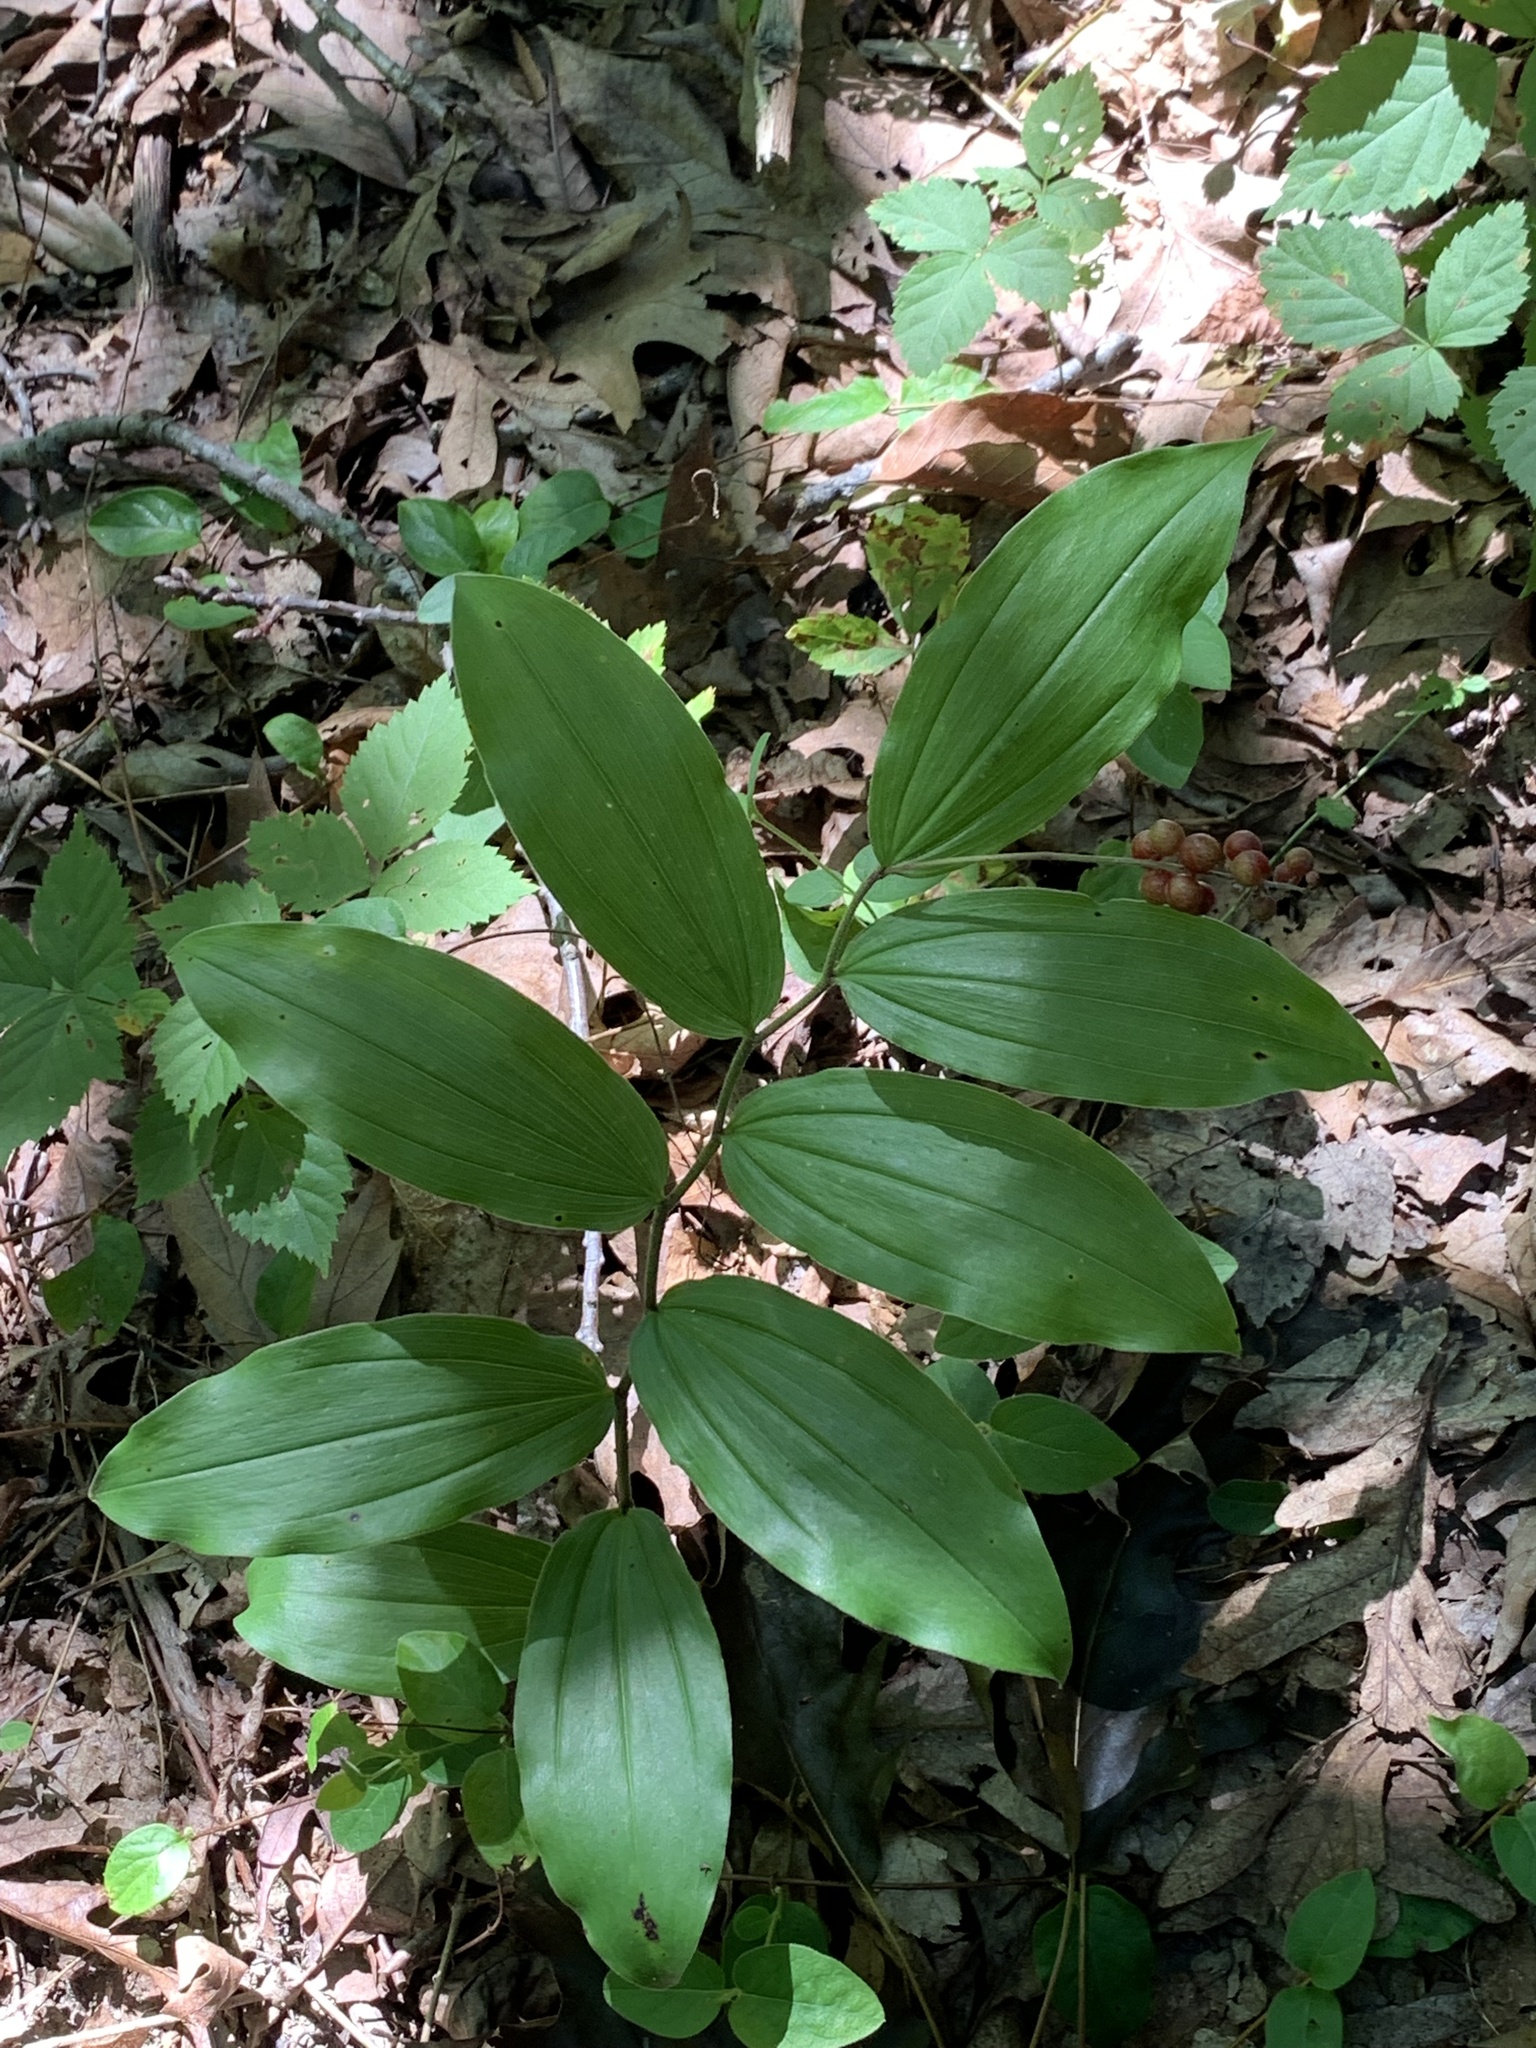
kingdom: Plantae
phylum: Tracheophyta
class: Liliopsida
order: Asparagales
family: Asparagaceae
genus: Maianthemum
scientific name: Maianthemum racemosum
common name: False spikenard
